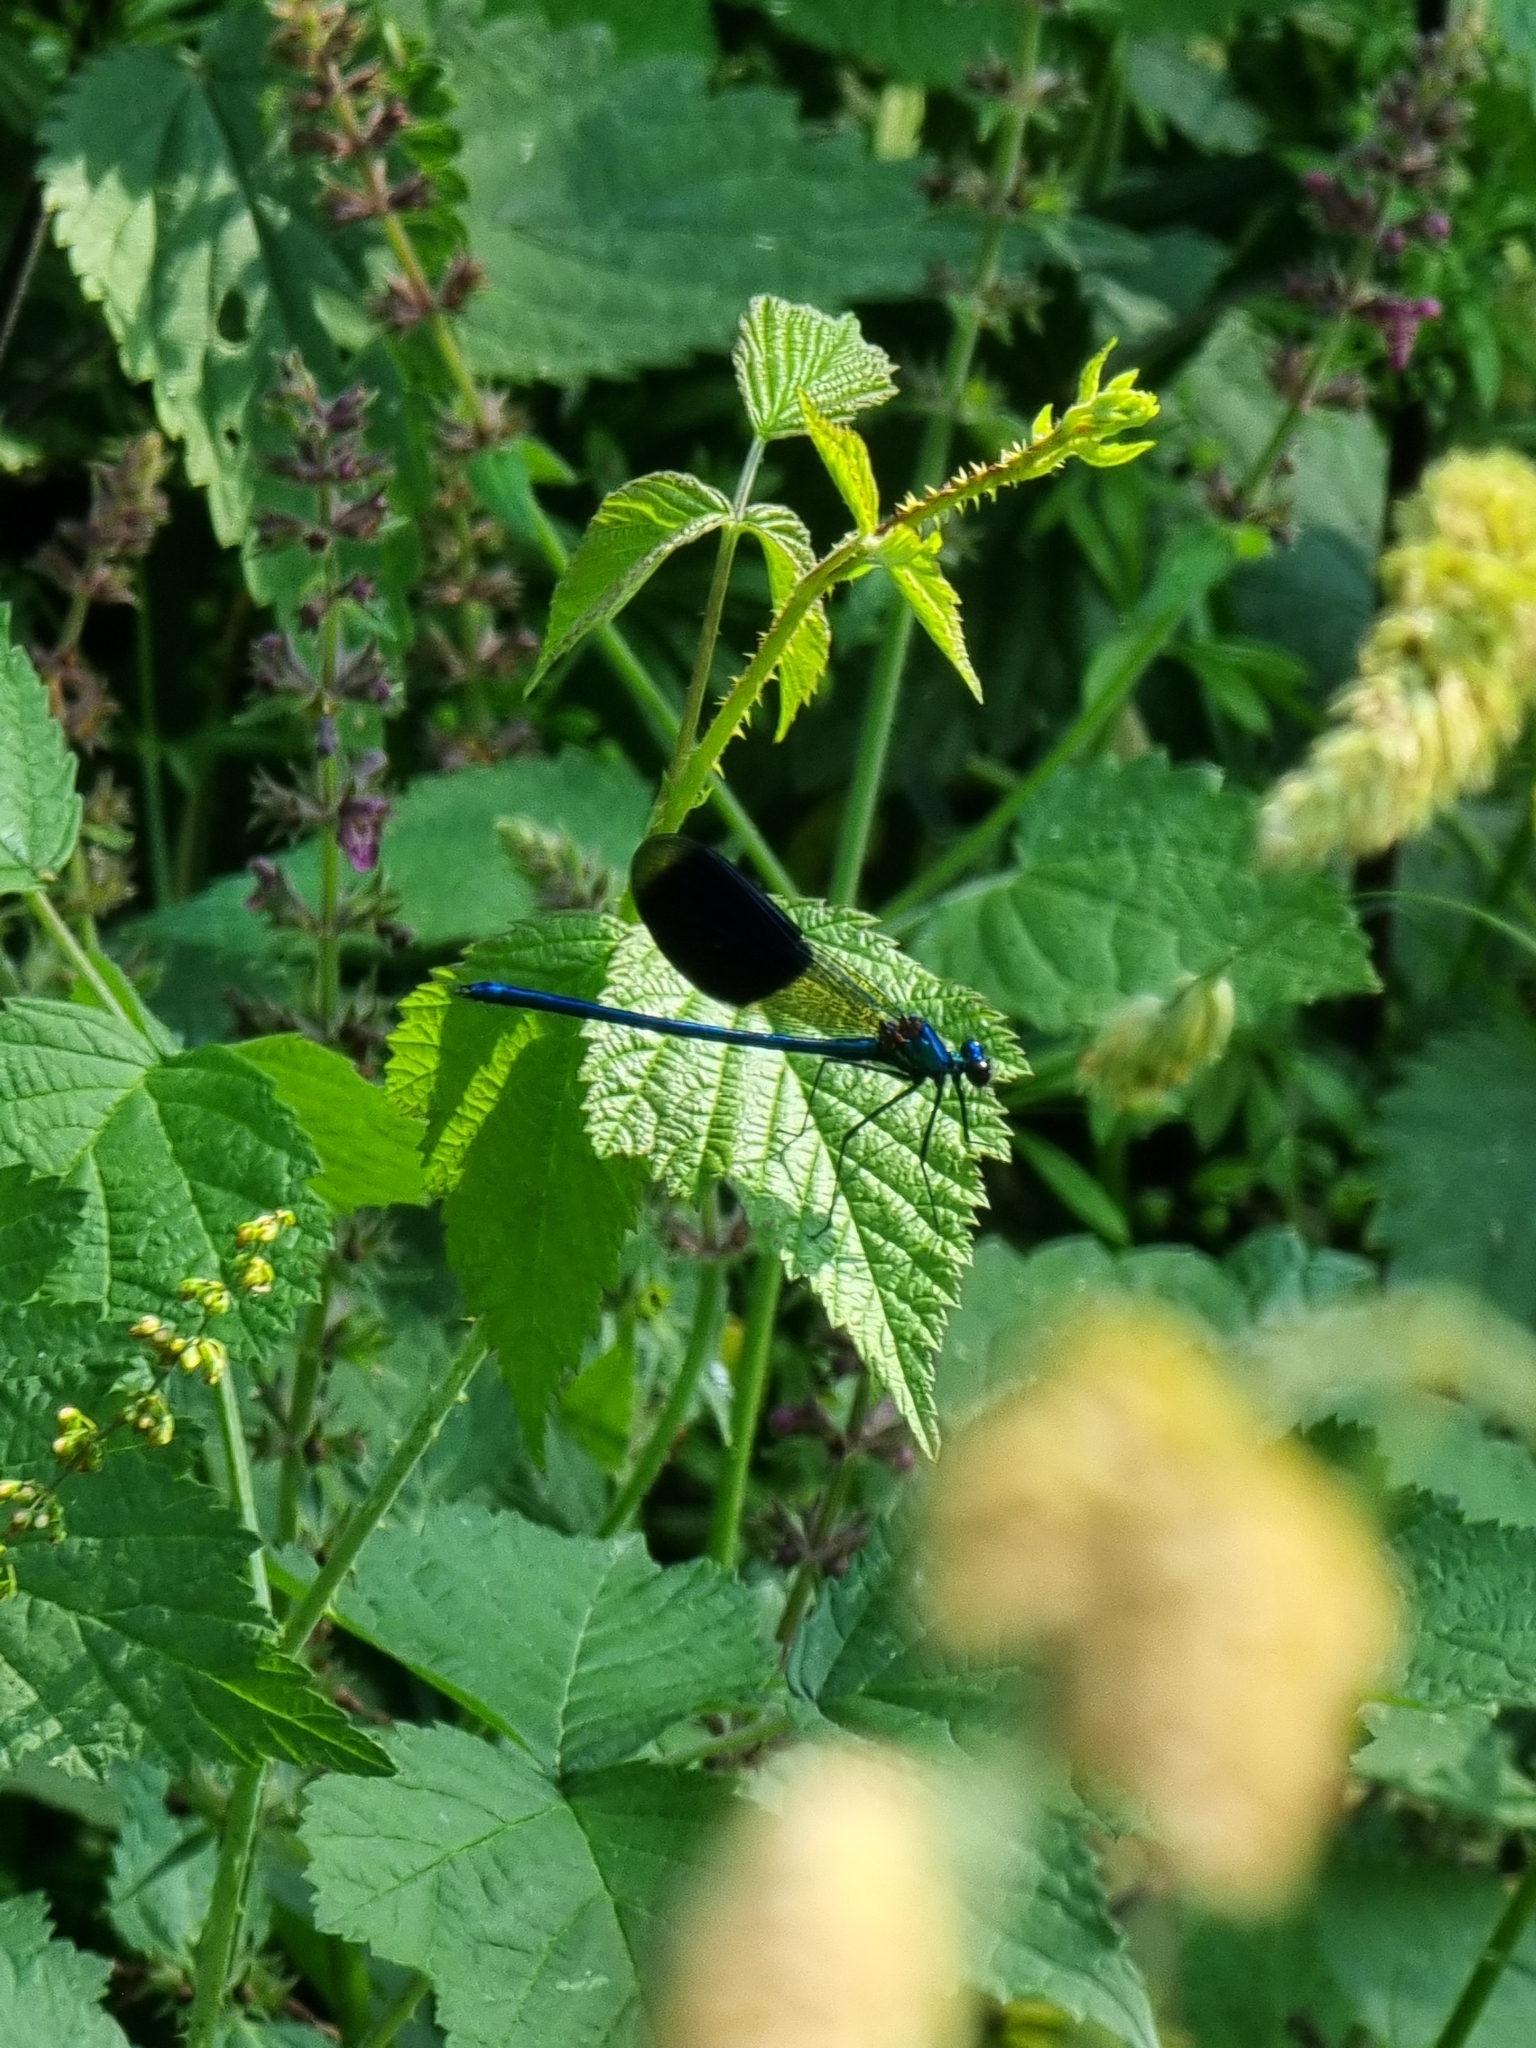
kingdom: Animalia
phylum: Arthropoda
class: Insecta
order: Odonata
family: Calopterygidae
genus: Calopteryx
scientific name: Calopteryx splendens
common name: Banded demoiselle
